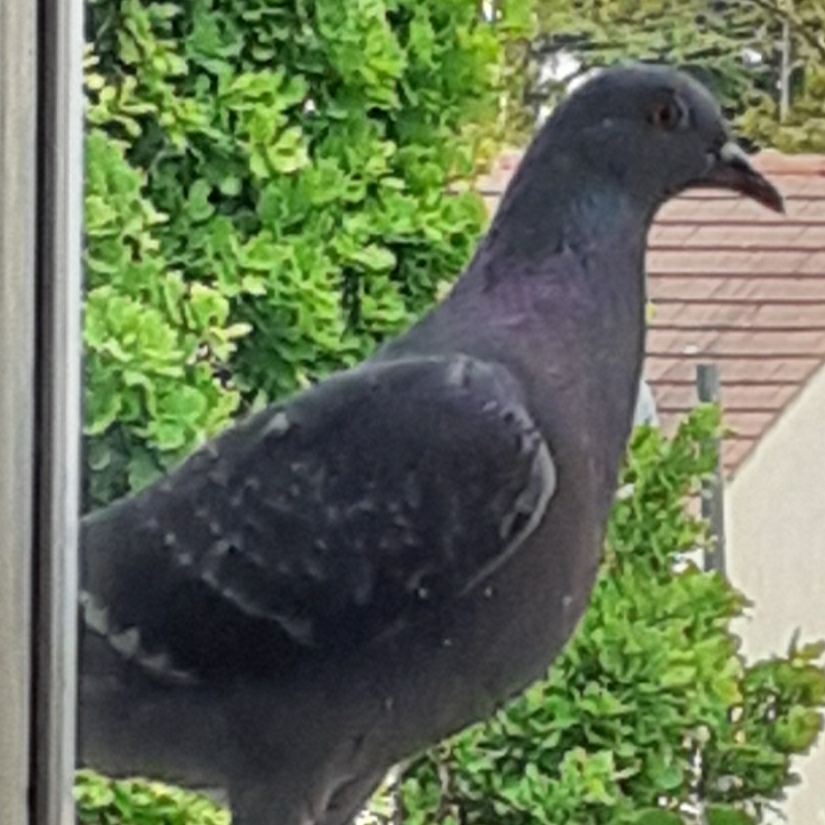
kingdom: Animalia
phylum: Chordata
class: Aves
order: Columbiformes
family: Columbidae
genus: Columba
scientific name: Columba livia
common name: Rock pigeon
